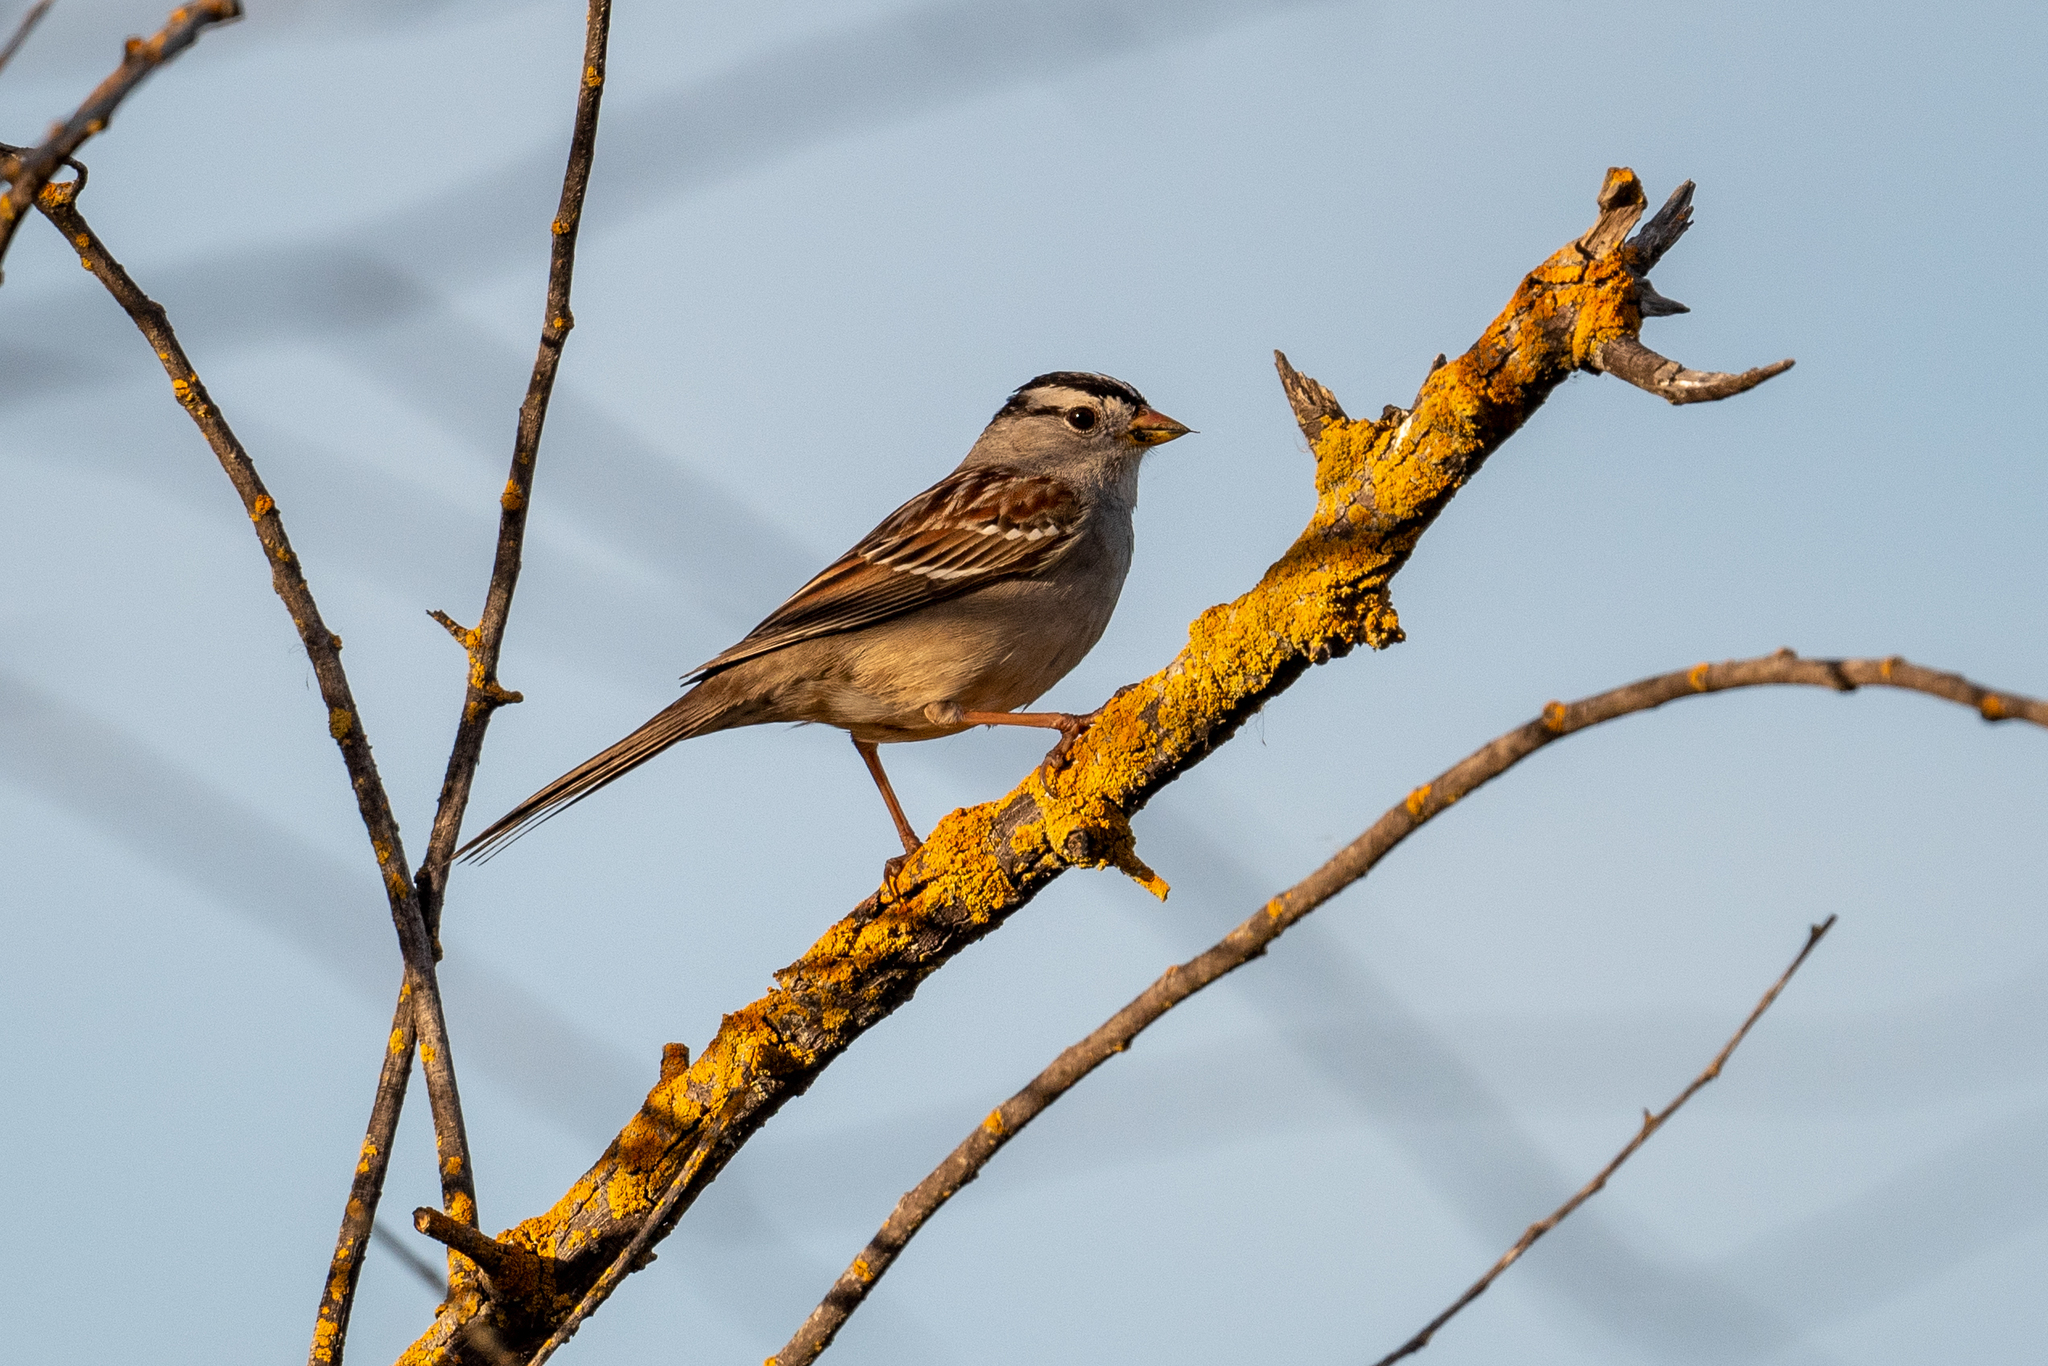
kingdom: Animalia
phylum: Chordata
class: Aves
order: Passeriformes
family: Passerellidae
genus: Zonotrichia
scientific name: Zonotrichia leucophrys
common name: White-crowned sparrow
